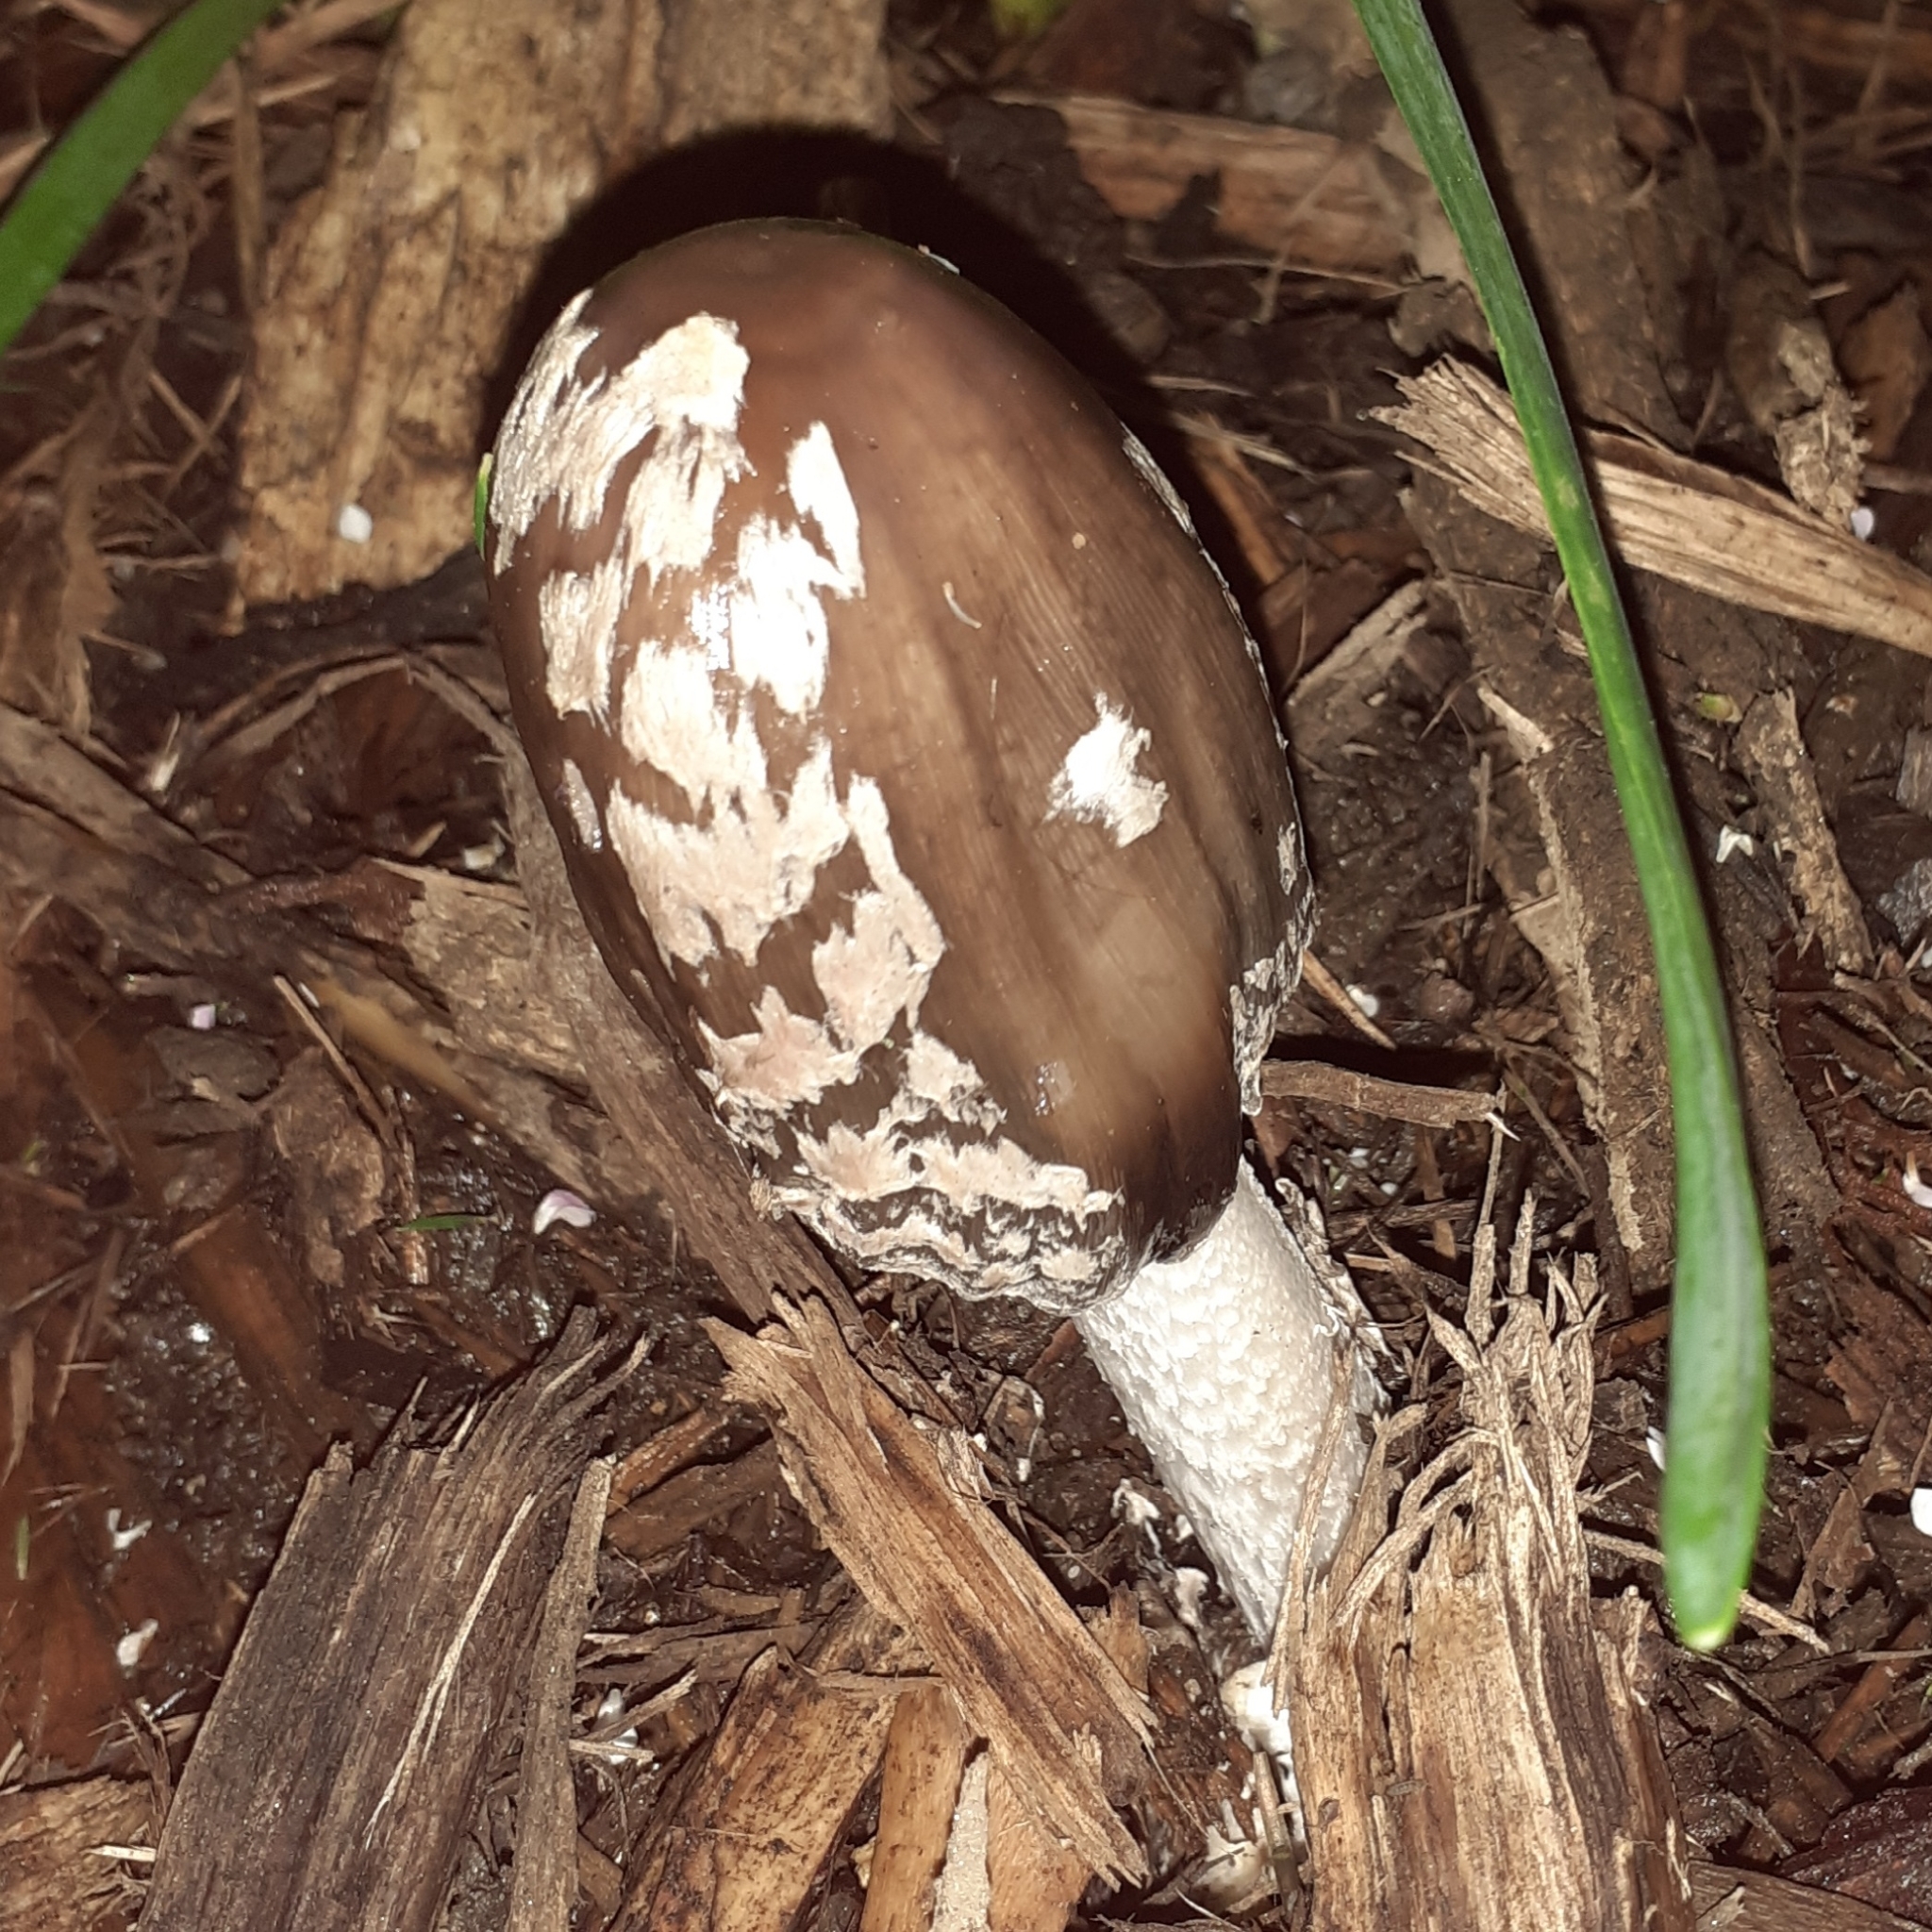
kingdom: Fungi
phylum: Basidiomycota
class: Agaricomycetes
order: Agaricales
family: Psathyrellaceae
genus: Coprinopsis
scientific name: Coprinopsis picacea
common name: Magpie inkcap
